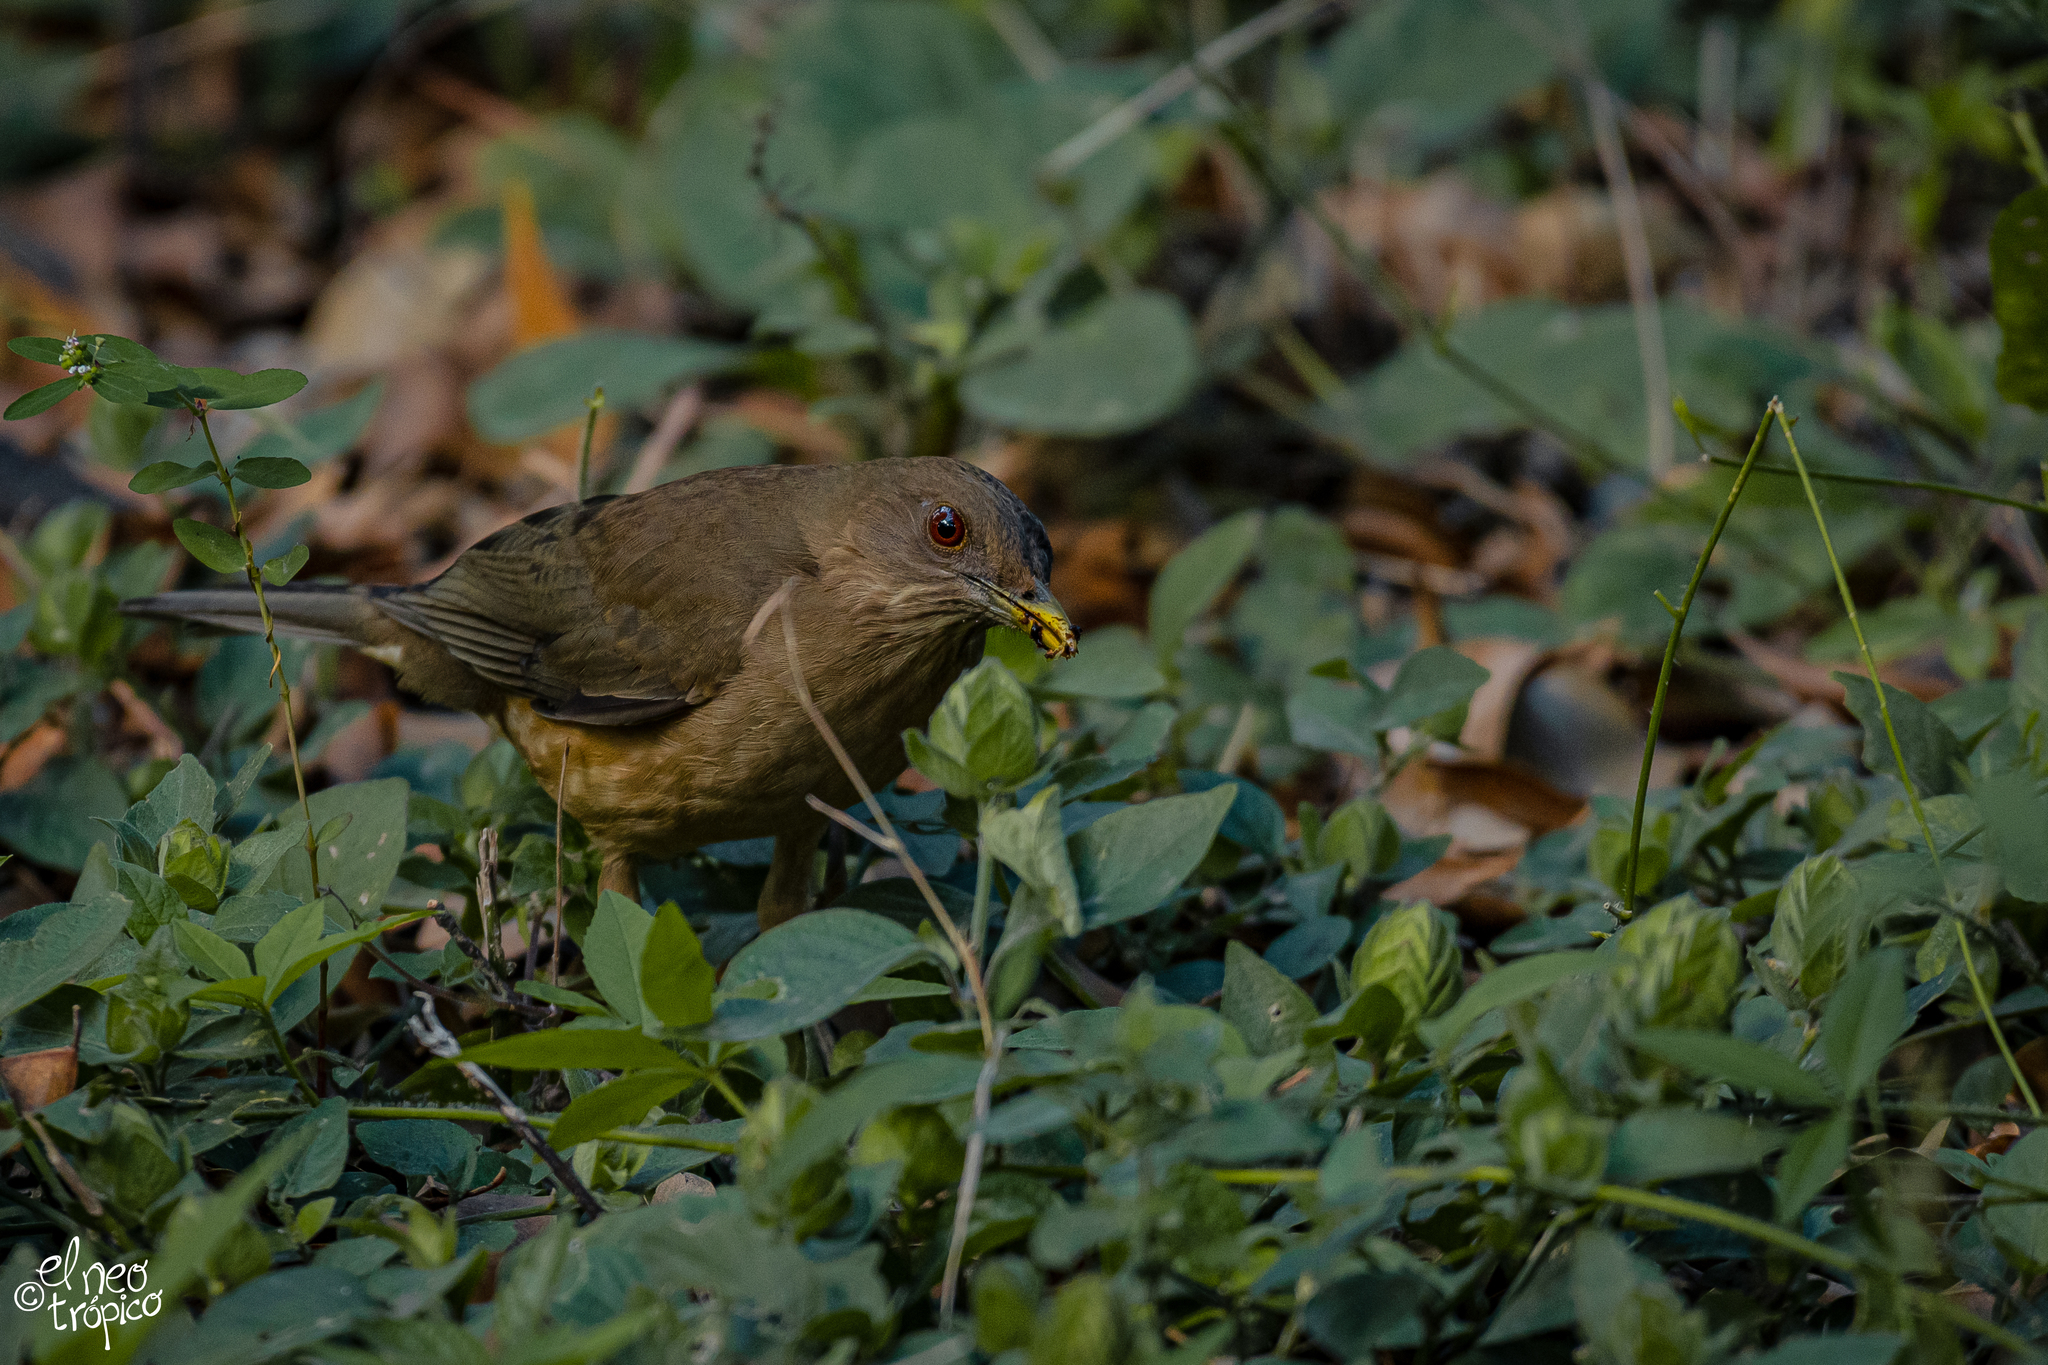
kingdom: Animalia
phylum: Chordata
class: Aves
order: Passeriformes
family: Turdidae
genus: Turdus
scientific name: Turdus grayi
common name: Clay-colored thrush
